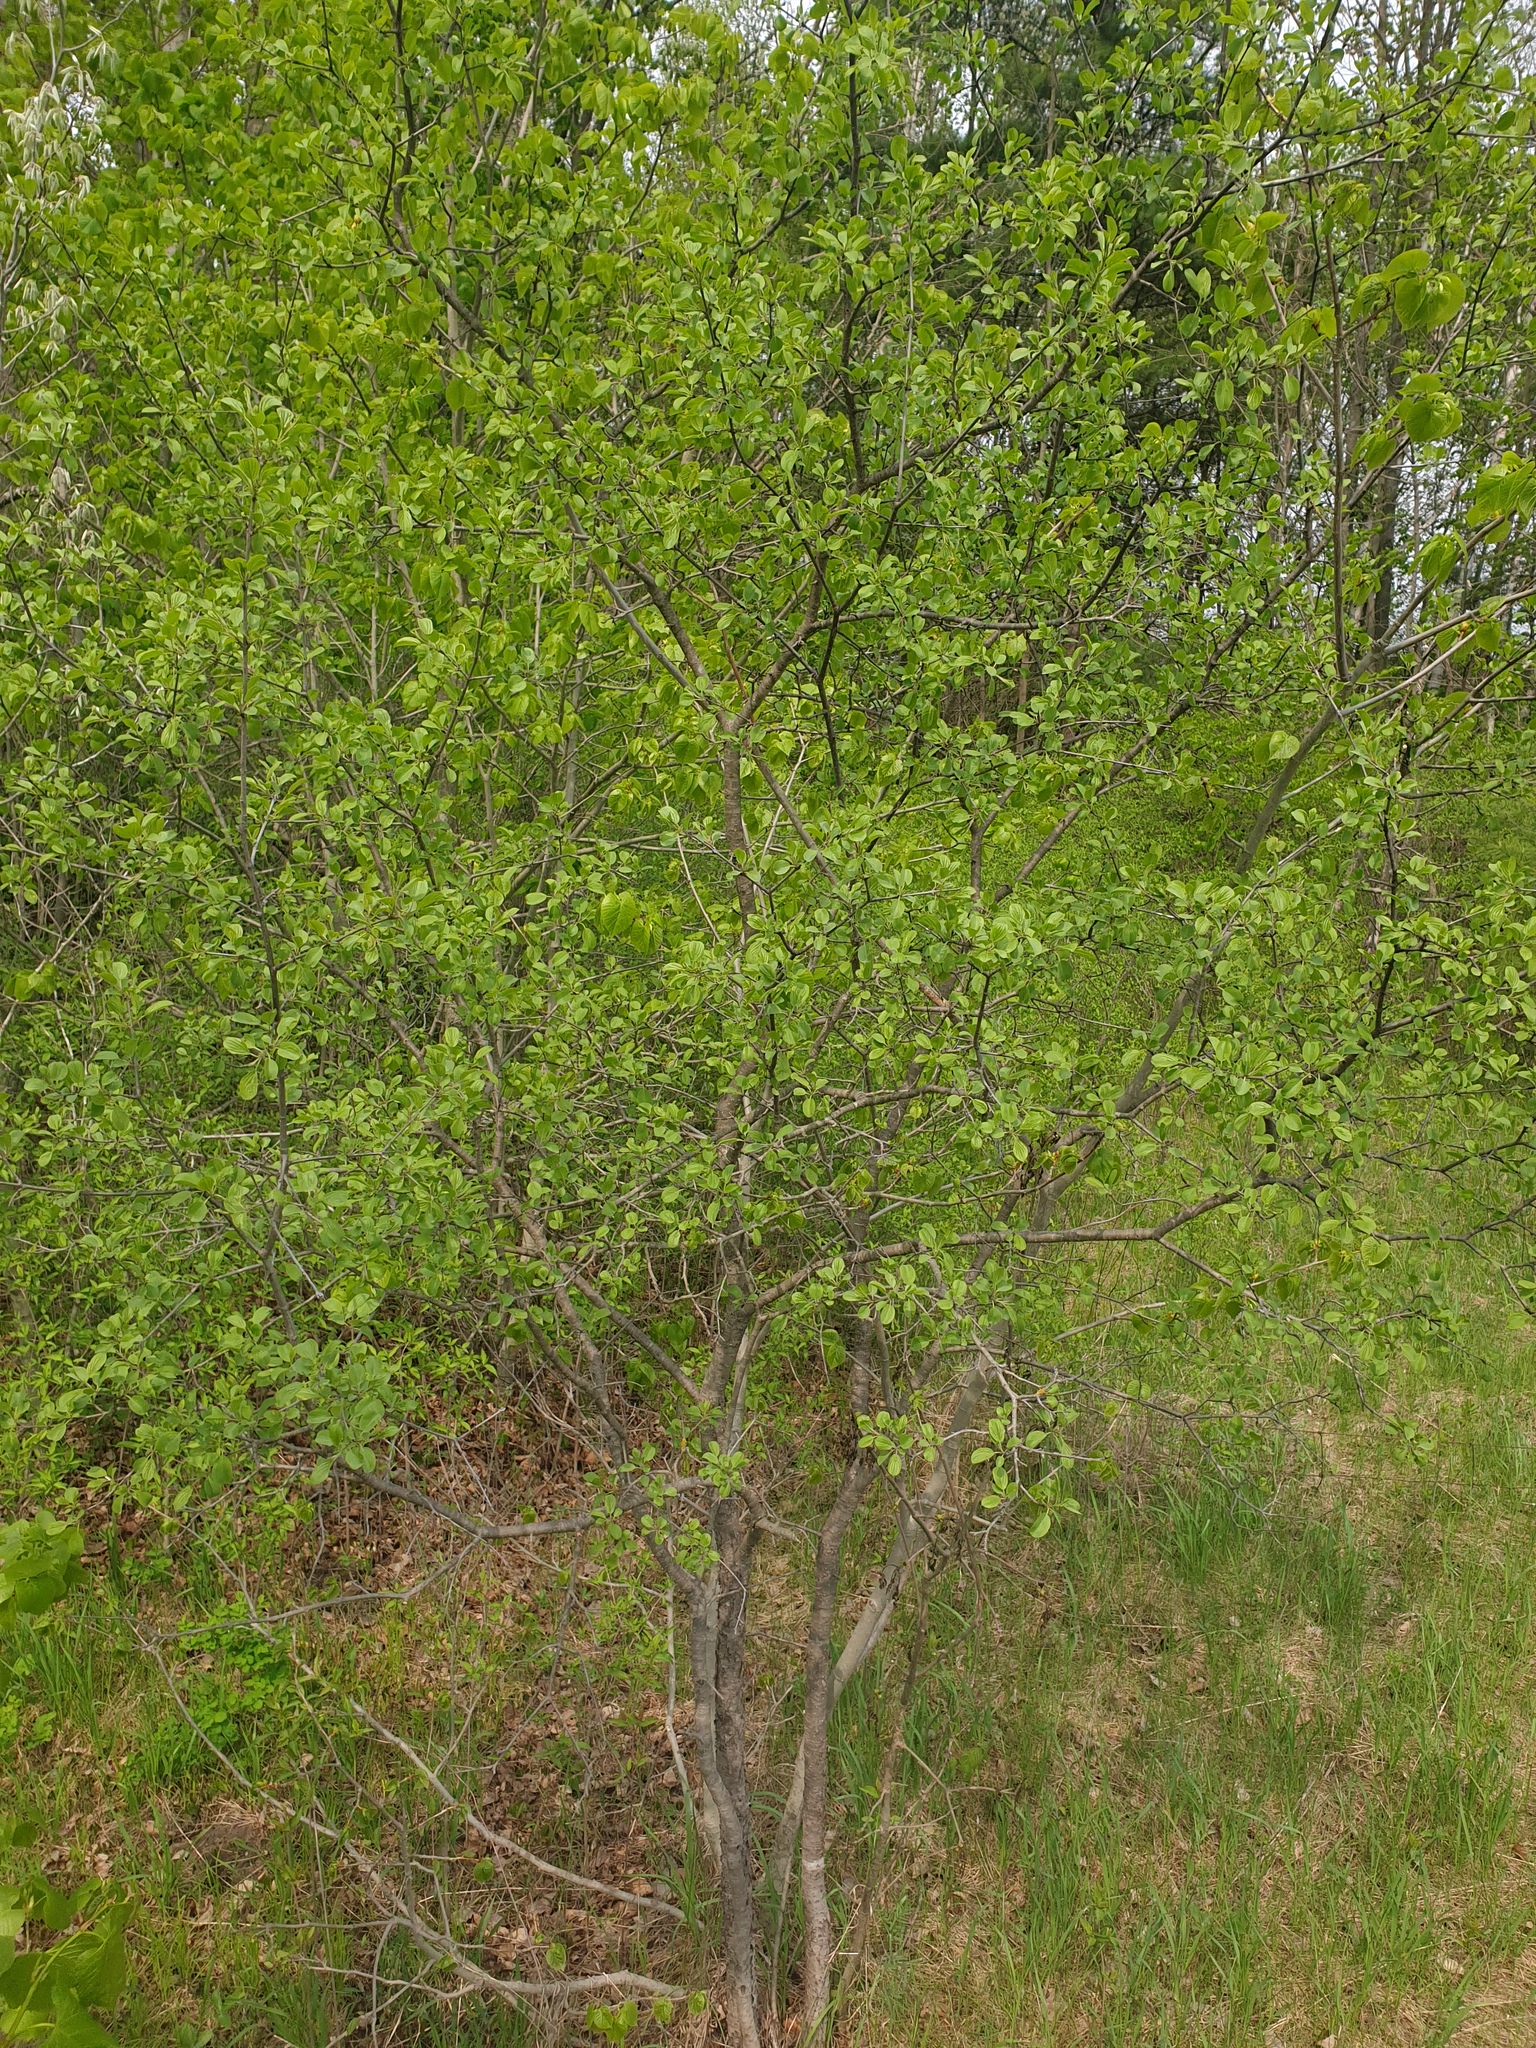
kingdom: Plantae
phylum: Tracheophyta
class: Magnoliopsida
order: Rosales
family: Rhamnaceae
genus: Rhamnus
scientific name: Rhamnus cathartica
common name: Common buckthorn
